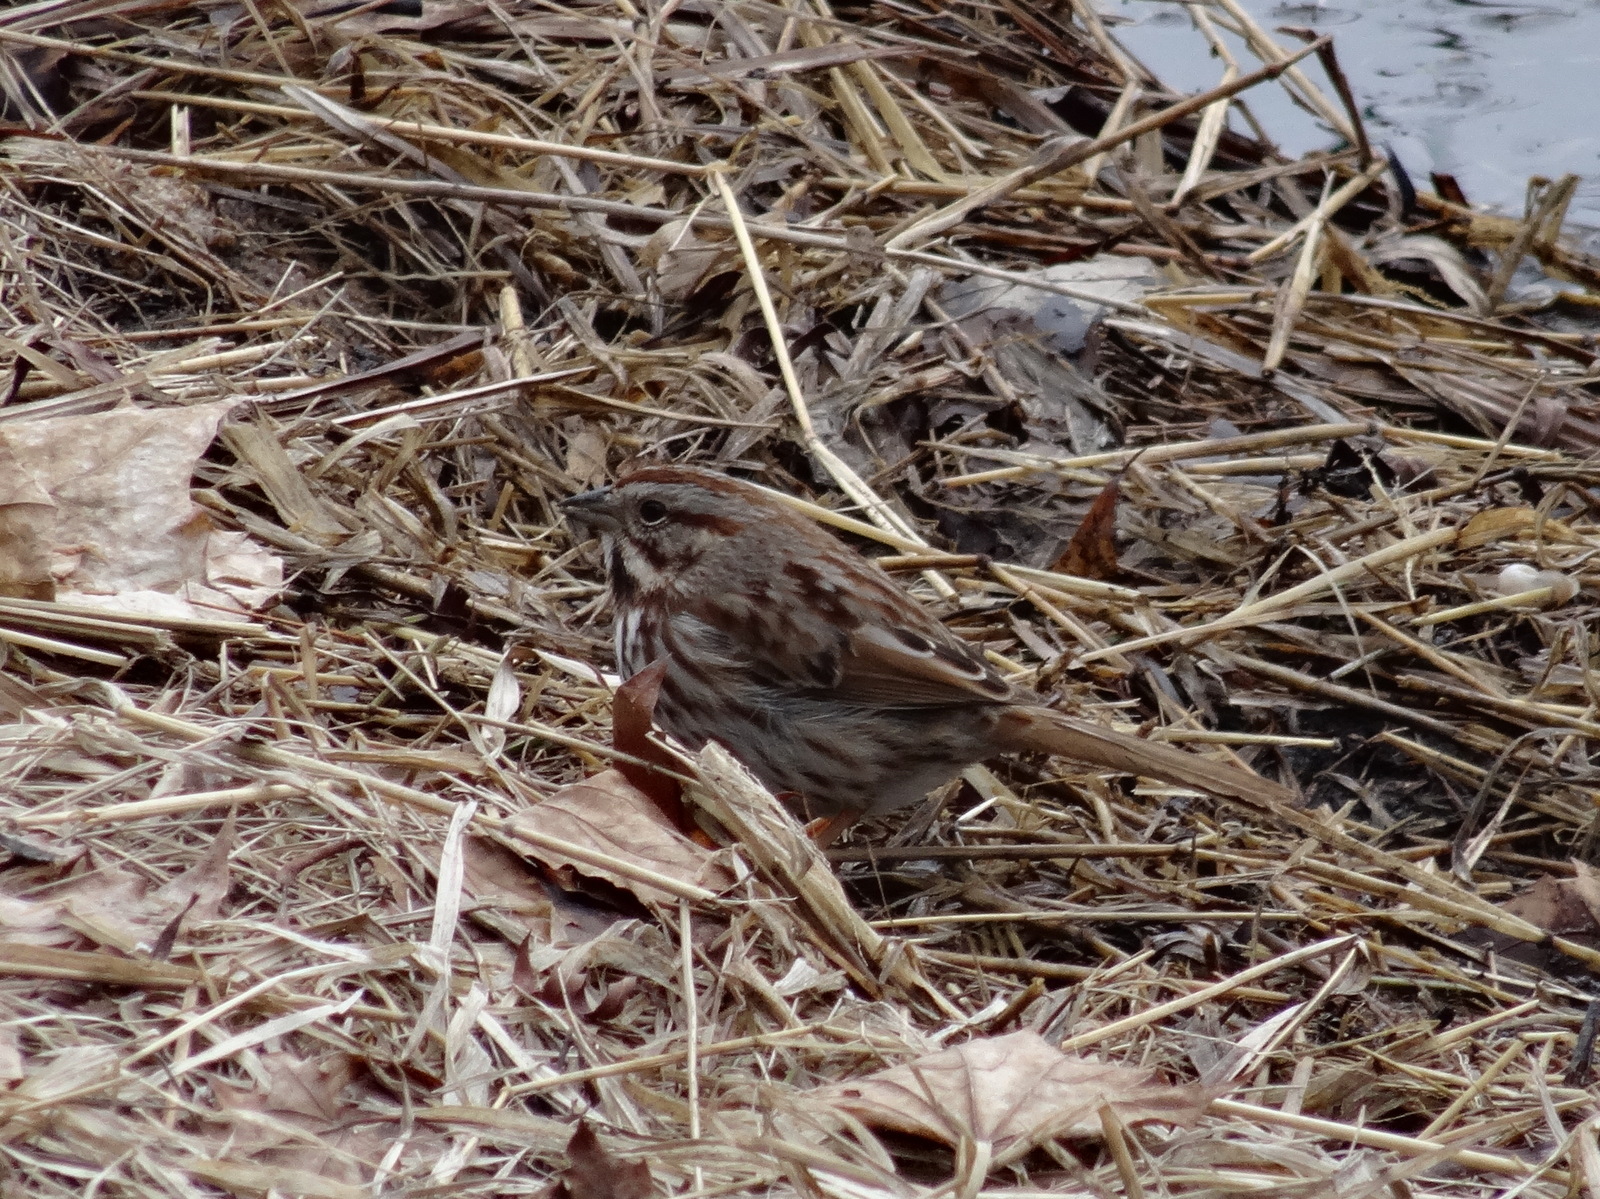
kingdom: Animalia
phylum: Chordata
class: Aves
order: Passeriformes
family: Passerellidae
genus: Melospiza
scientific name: Melospiza melodia
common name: Song sparrow
